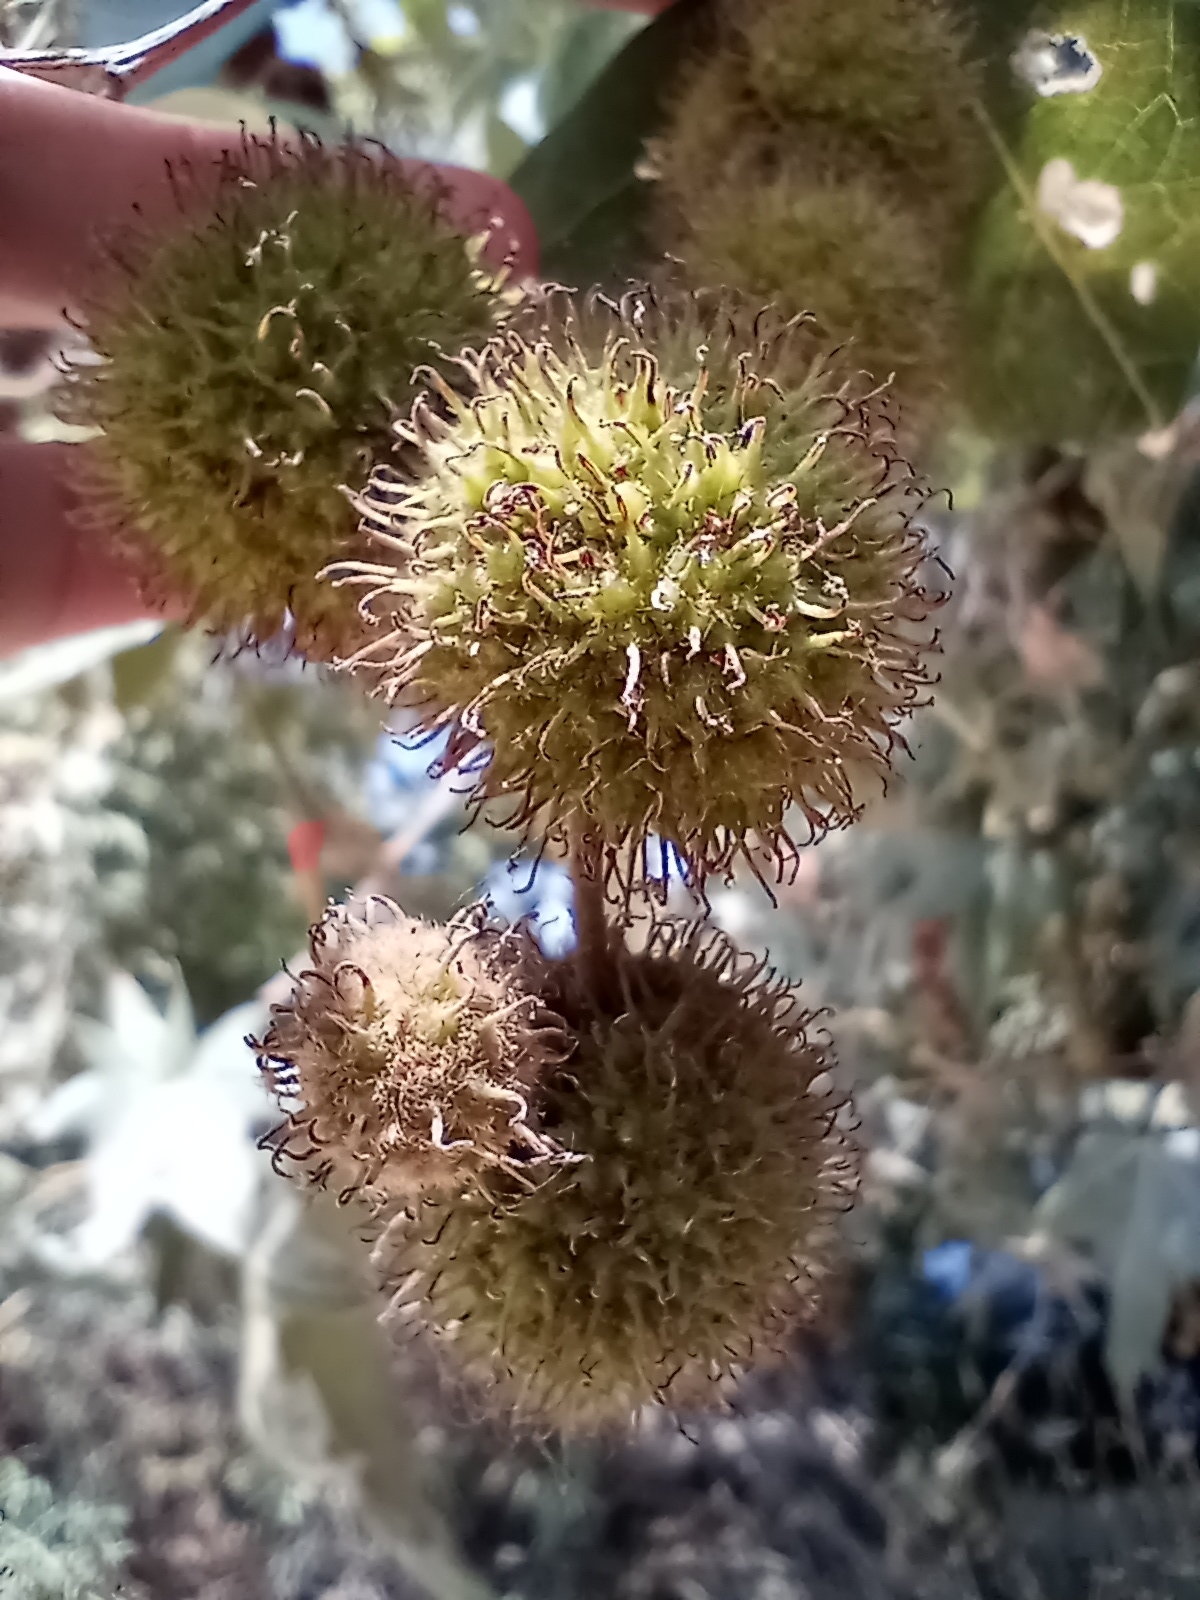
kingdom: Plantae
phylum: Tracheophyta
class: Magnoliopsida
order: Proteales
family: Platanaceae
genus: Platanus
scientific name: Platanus racemosa
